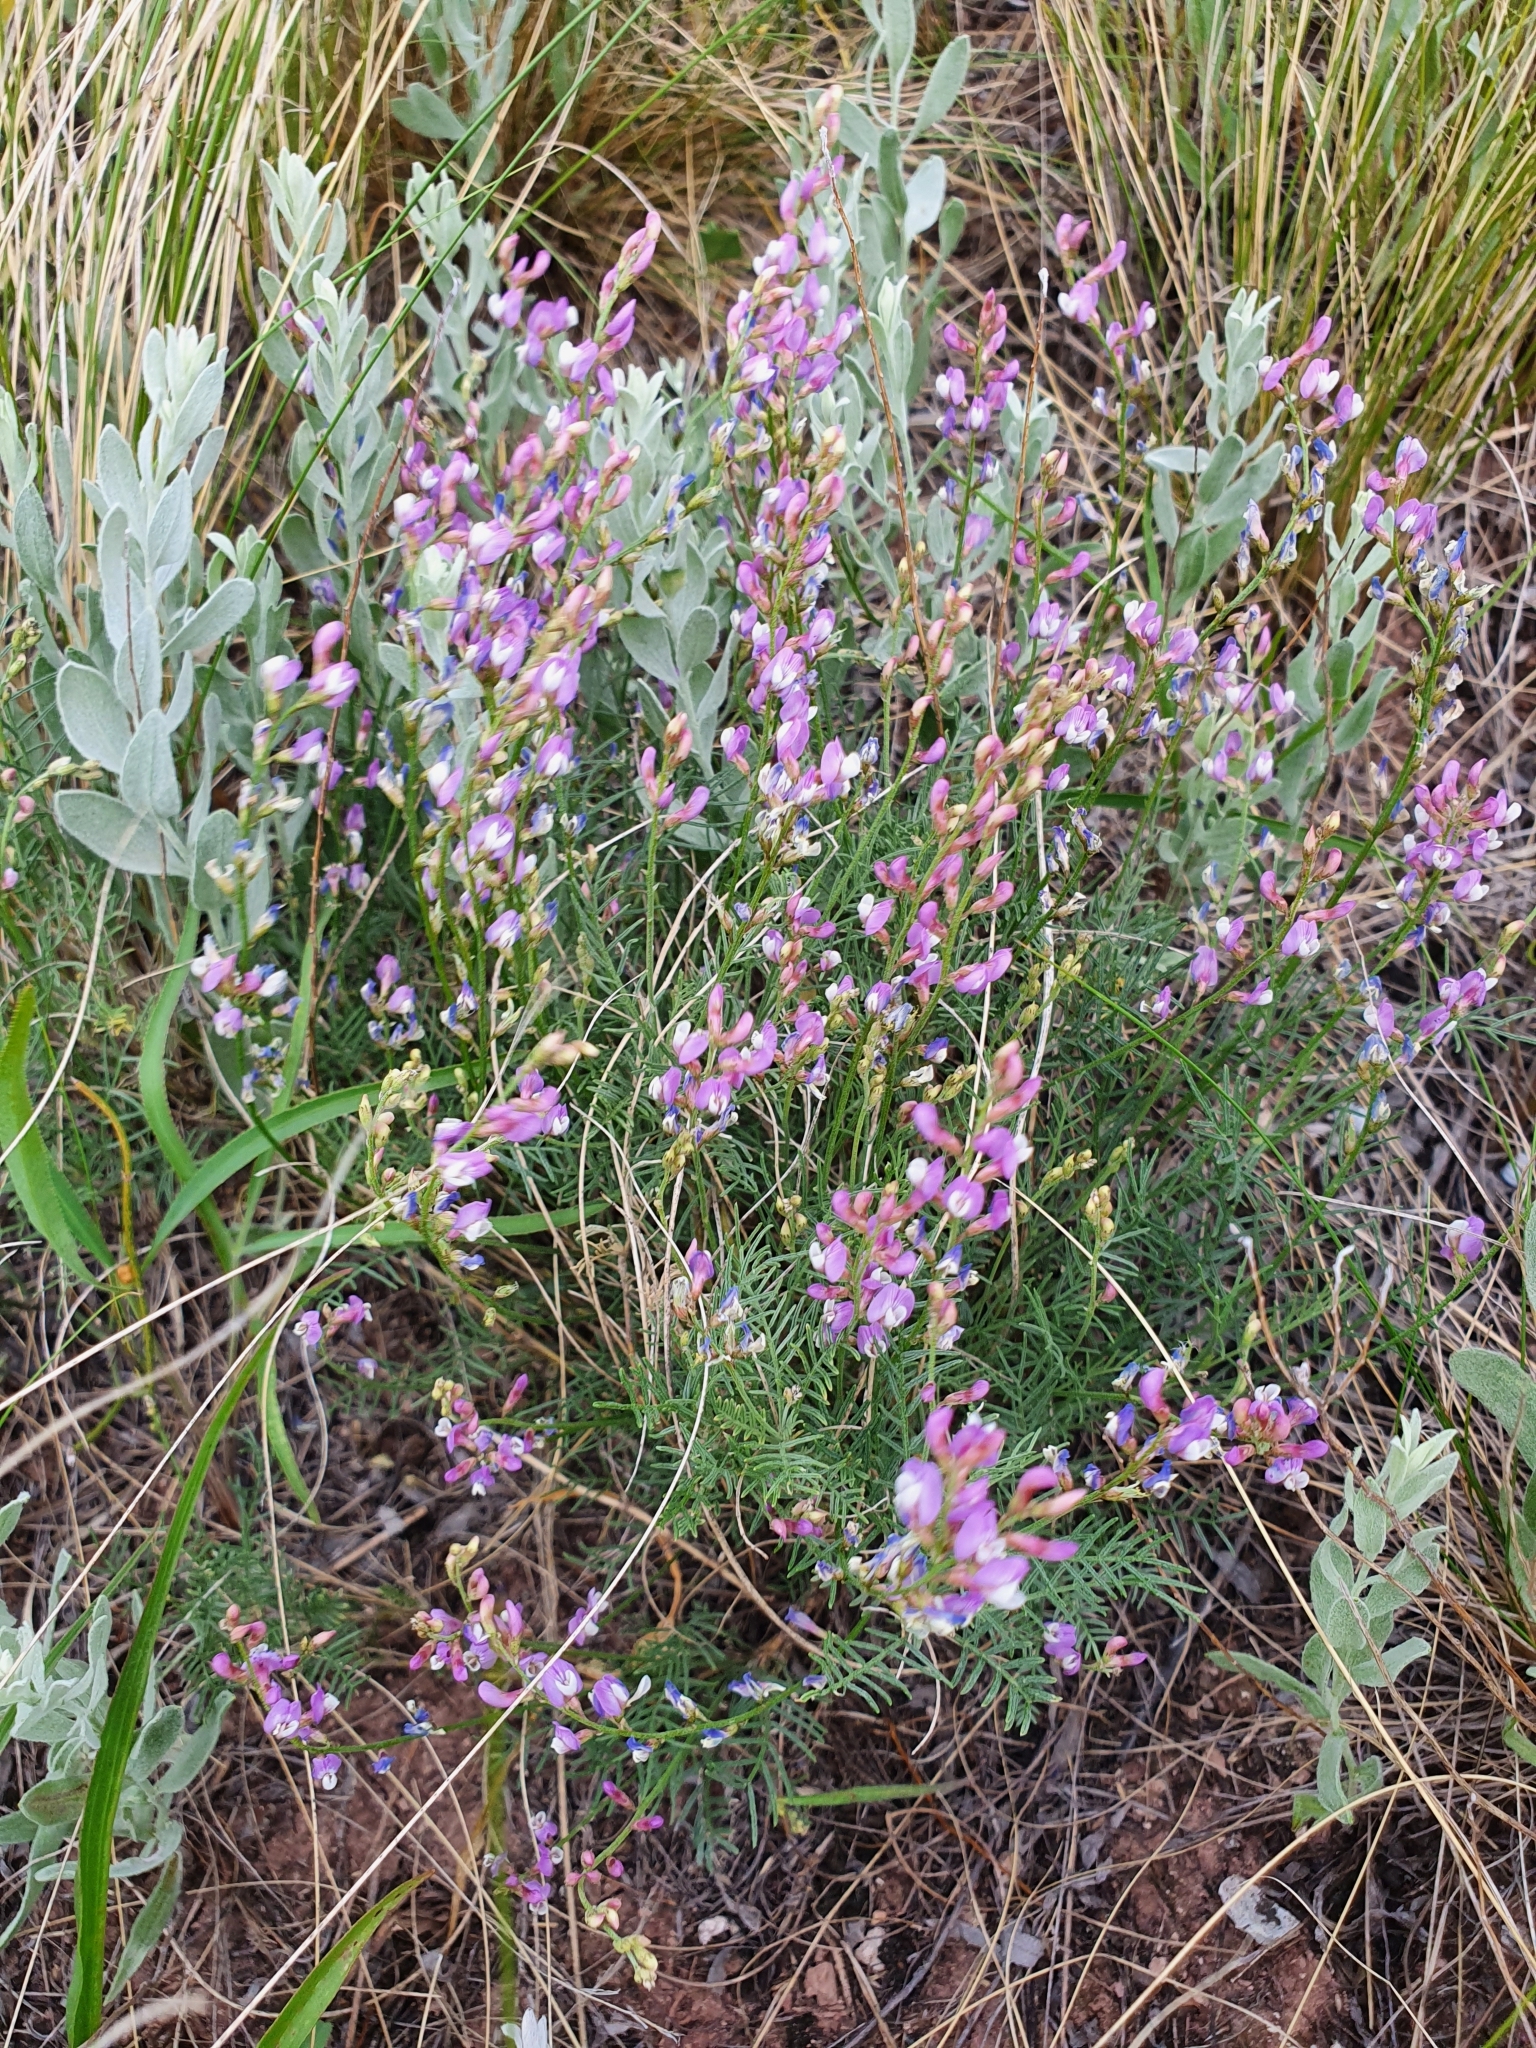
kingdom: Plantae
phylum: Tracheophyta
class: Magnoliopsida
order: Fabales
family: Fabaceae
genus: Astragalus
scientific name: Astragalus
